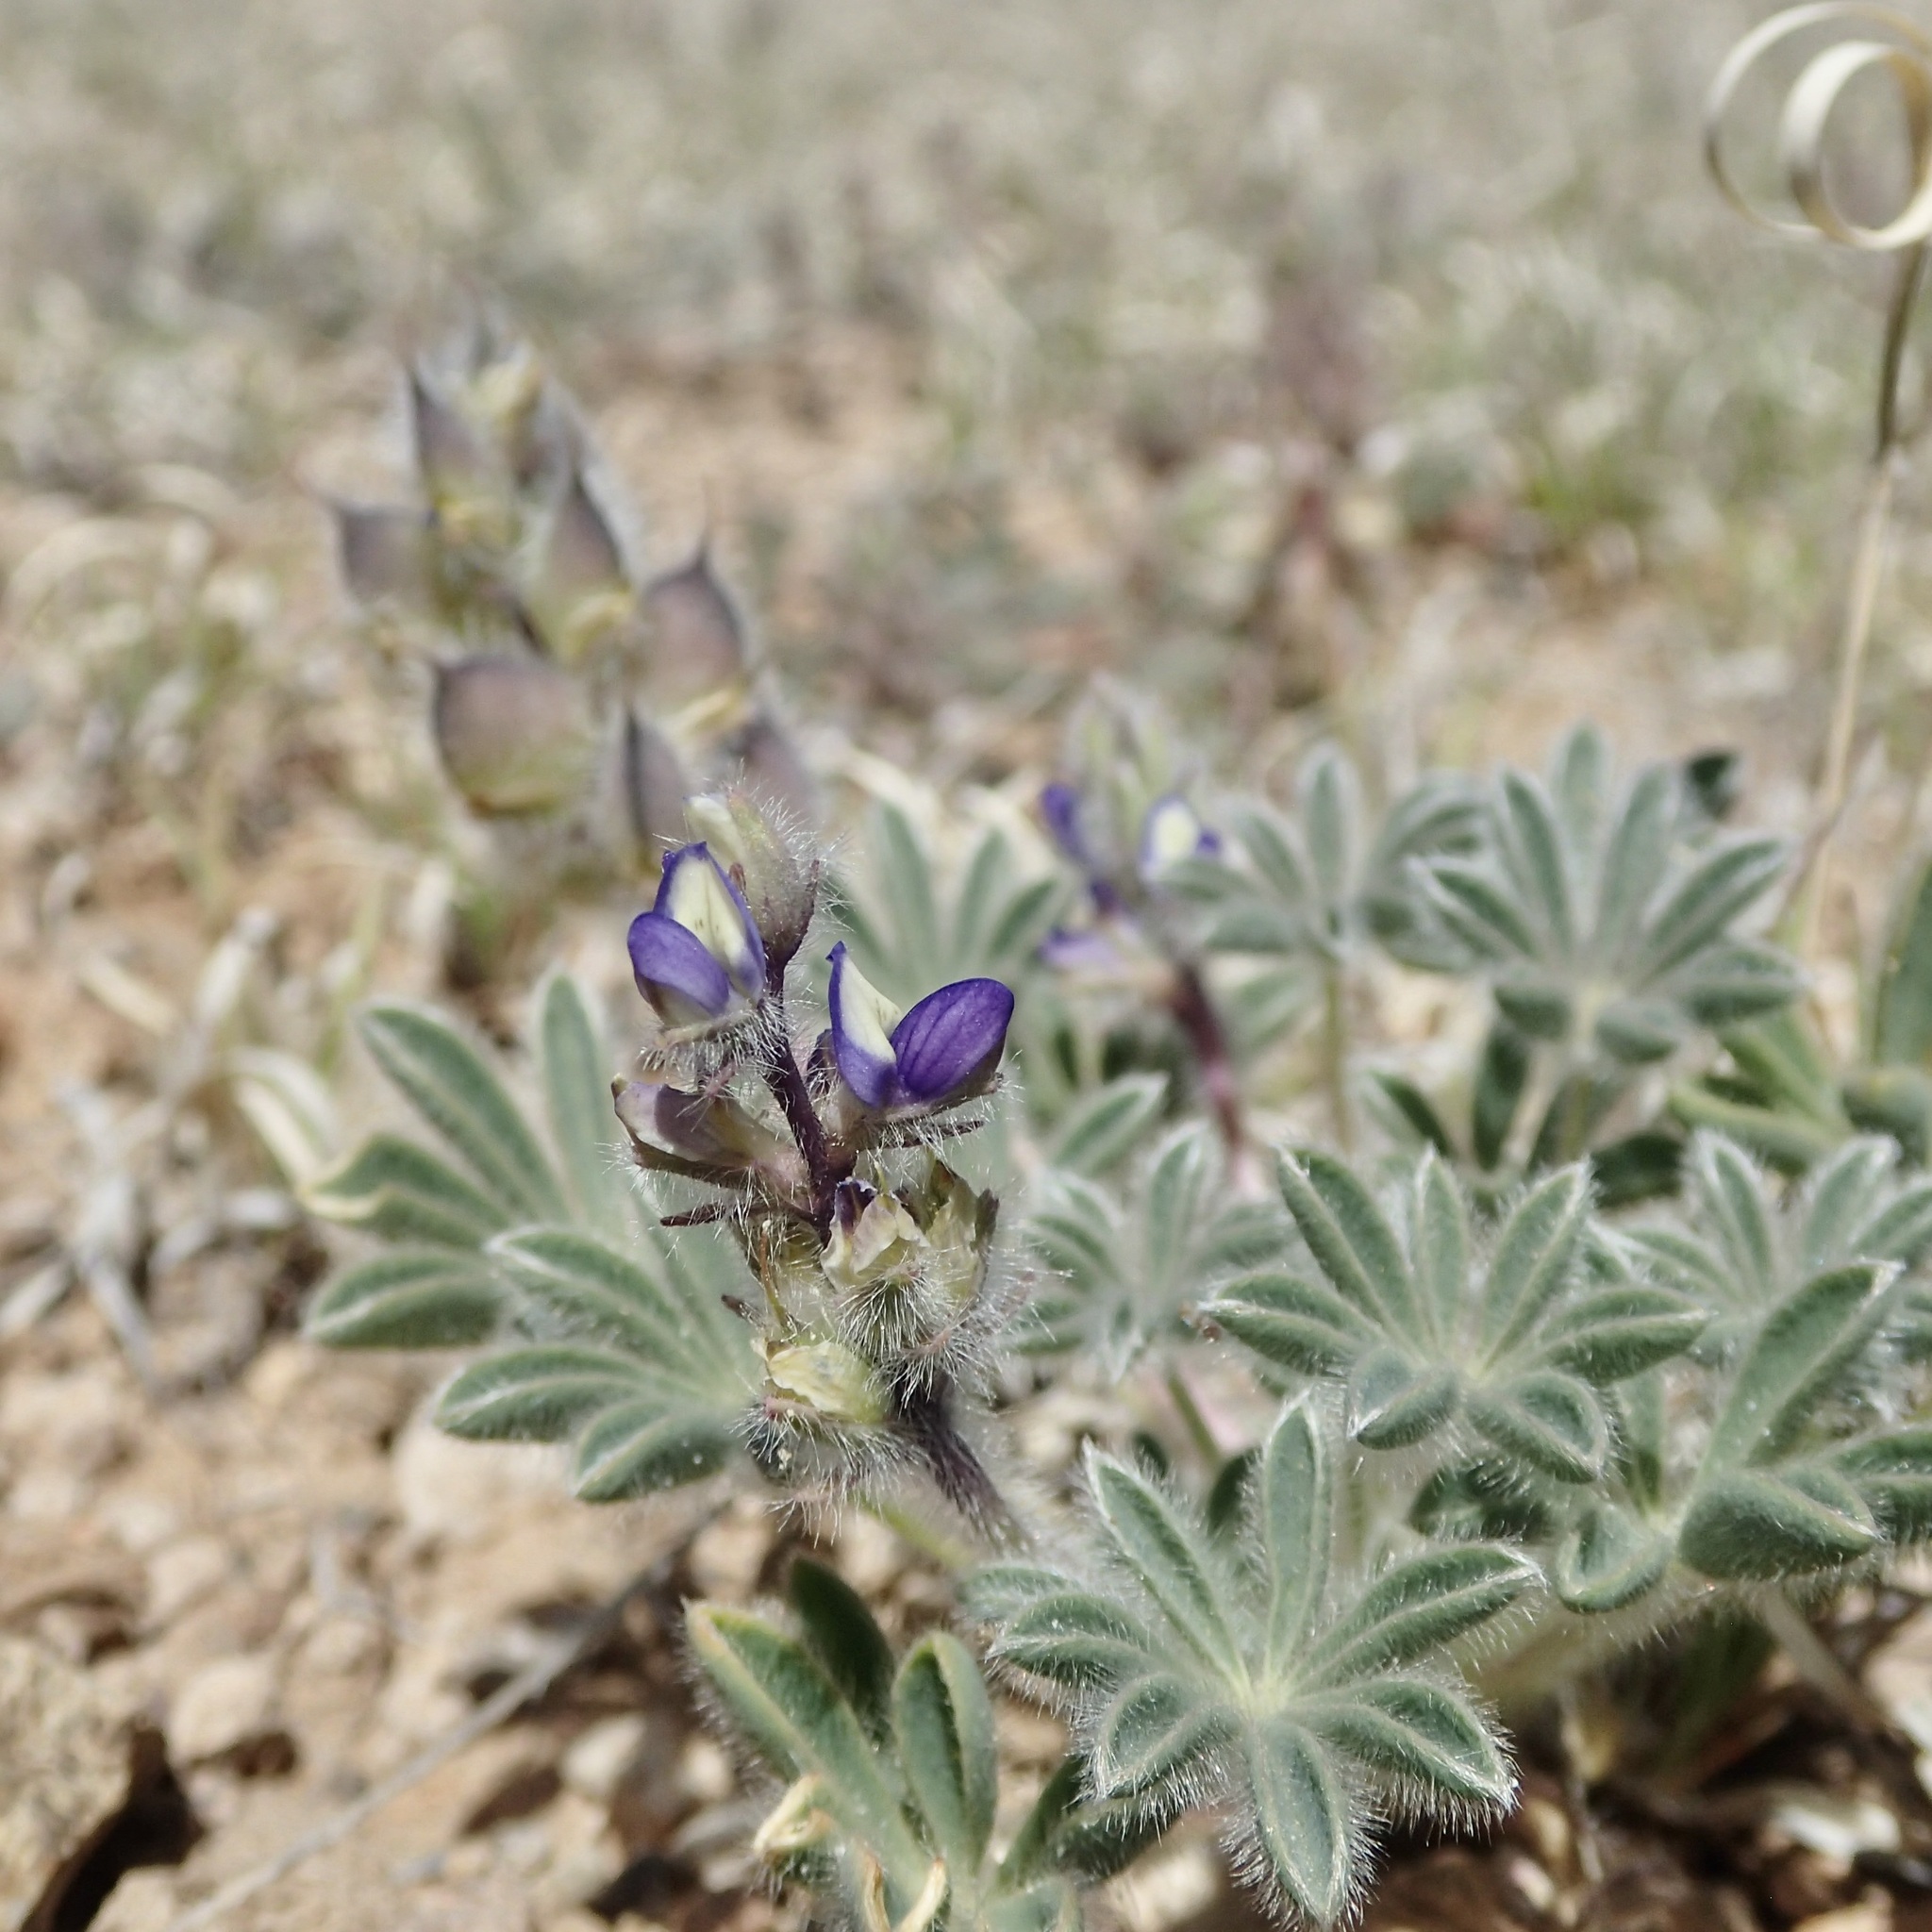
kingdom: Plantae
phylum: Tracheophyta
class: Magnoliopsida
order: Fabales
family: Fabaceae
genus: Lupinus
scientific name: Lupinus brevicaulis
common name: Sand lupine
